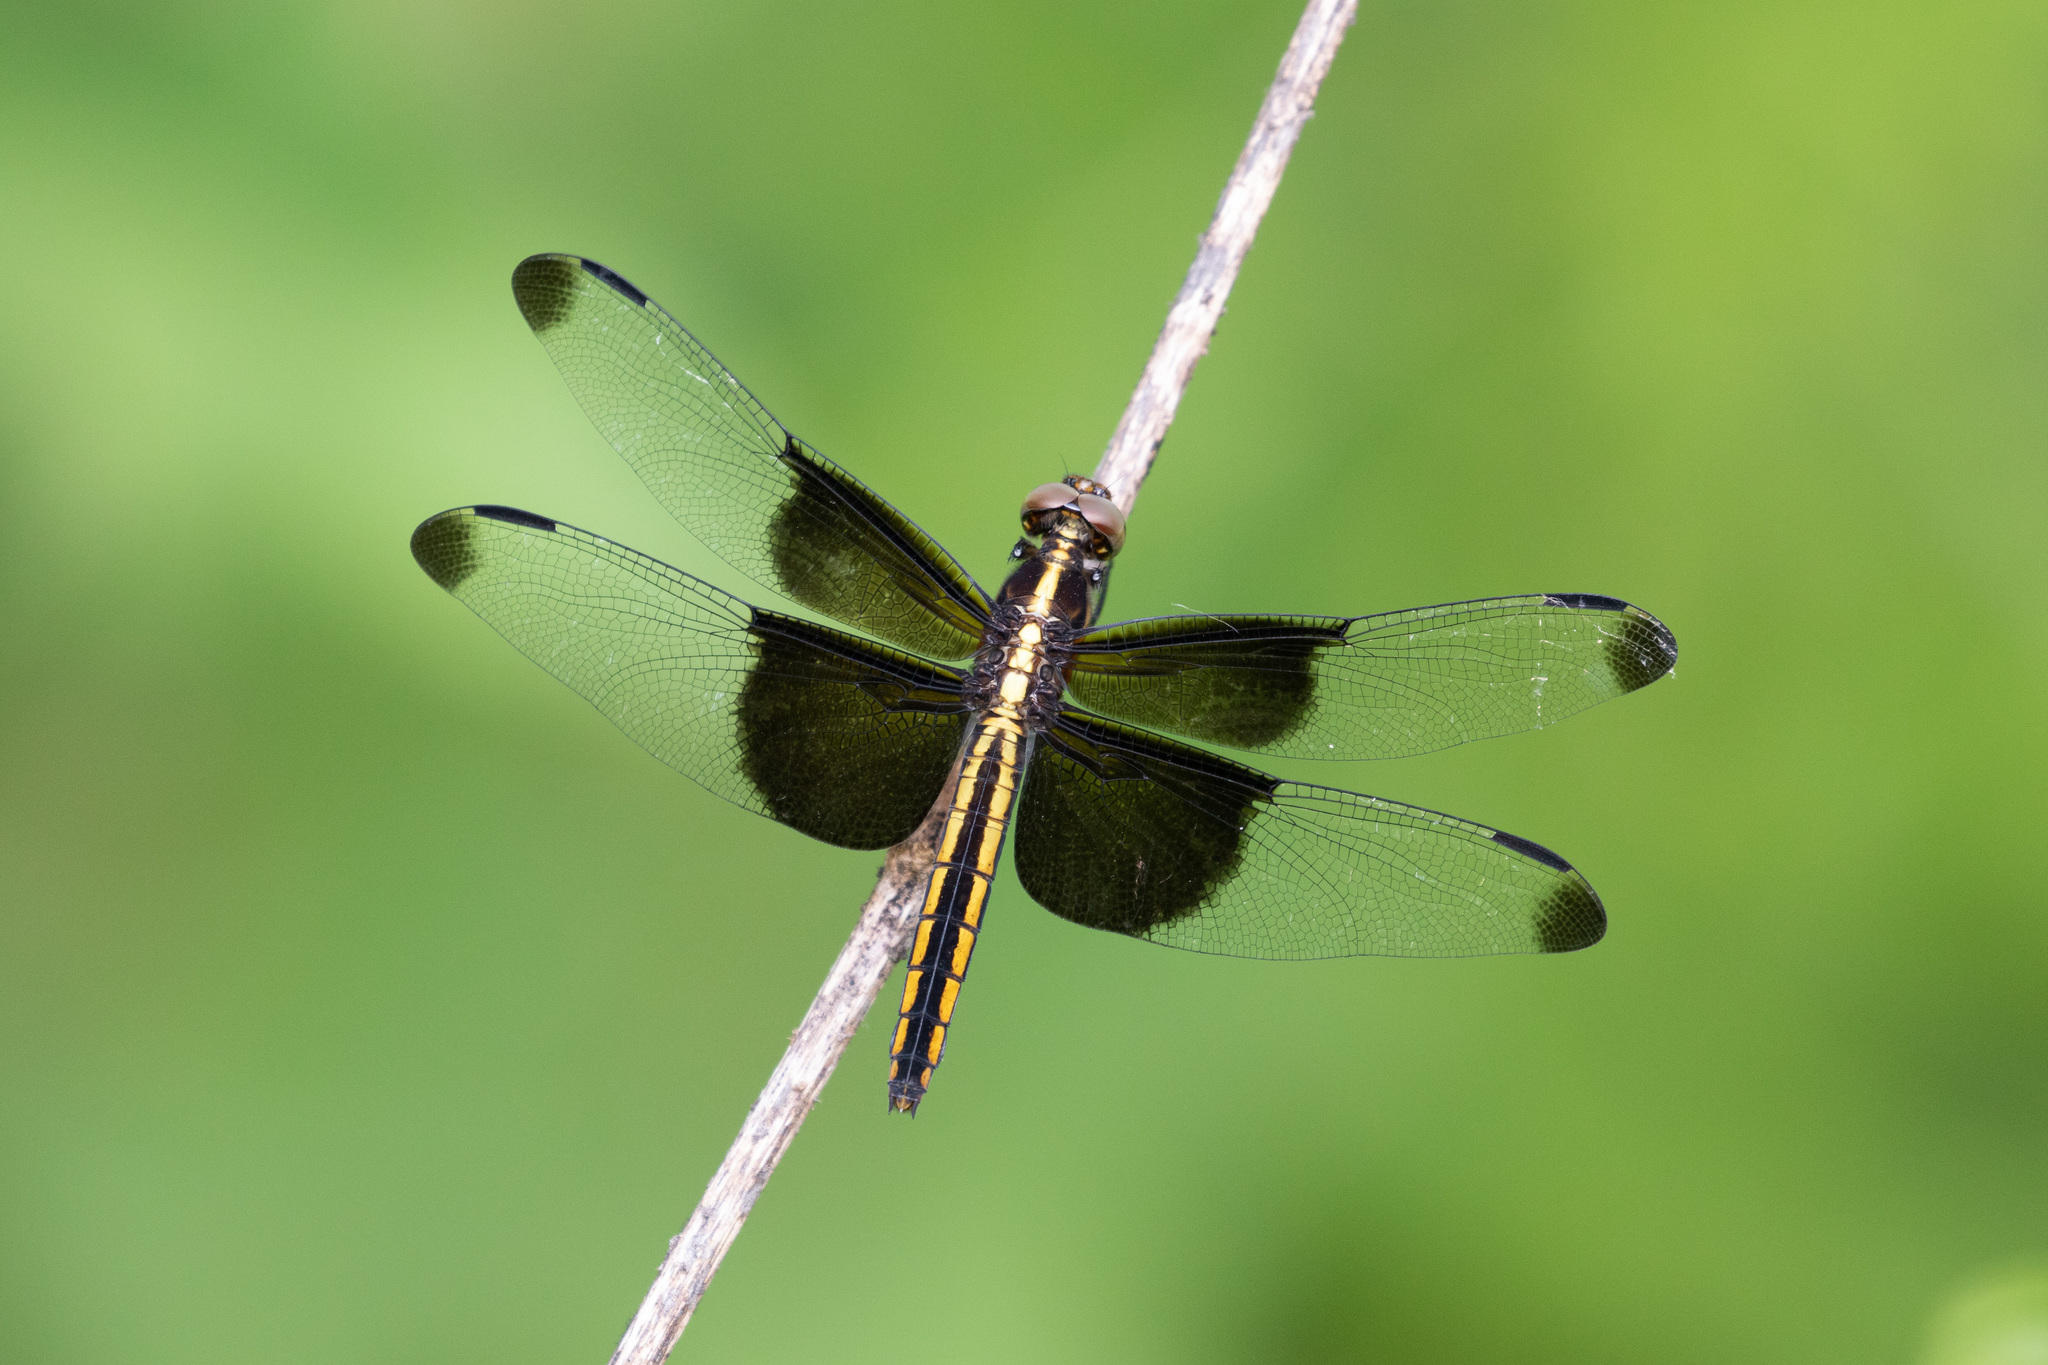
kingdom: Animalia
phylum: Arthropoda
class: Insecta
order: Odonata
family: Libellulidae
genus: Libellula
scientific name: Libellula luctuosa
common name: Widow skimmer
